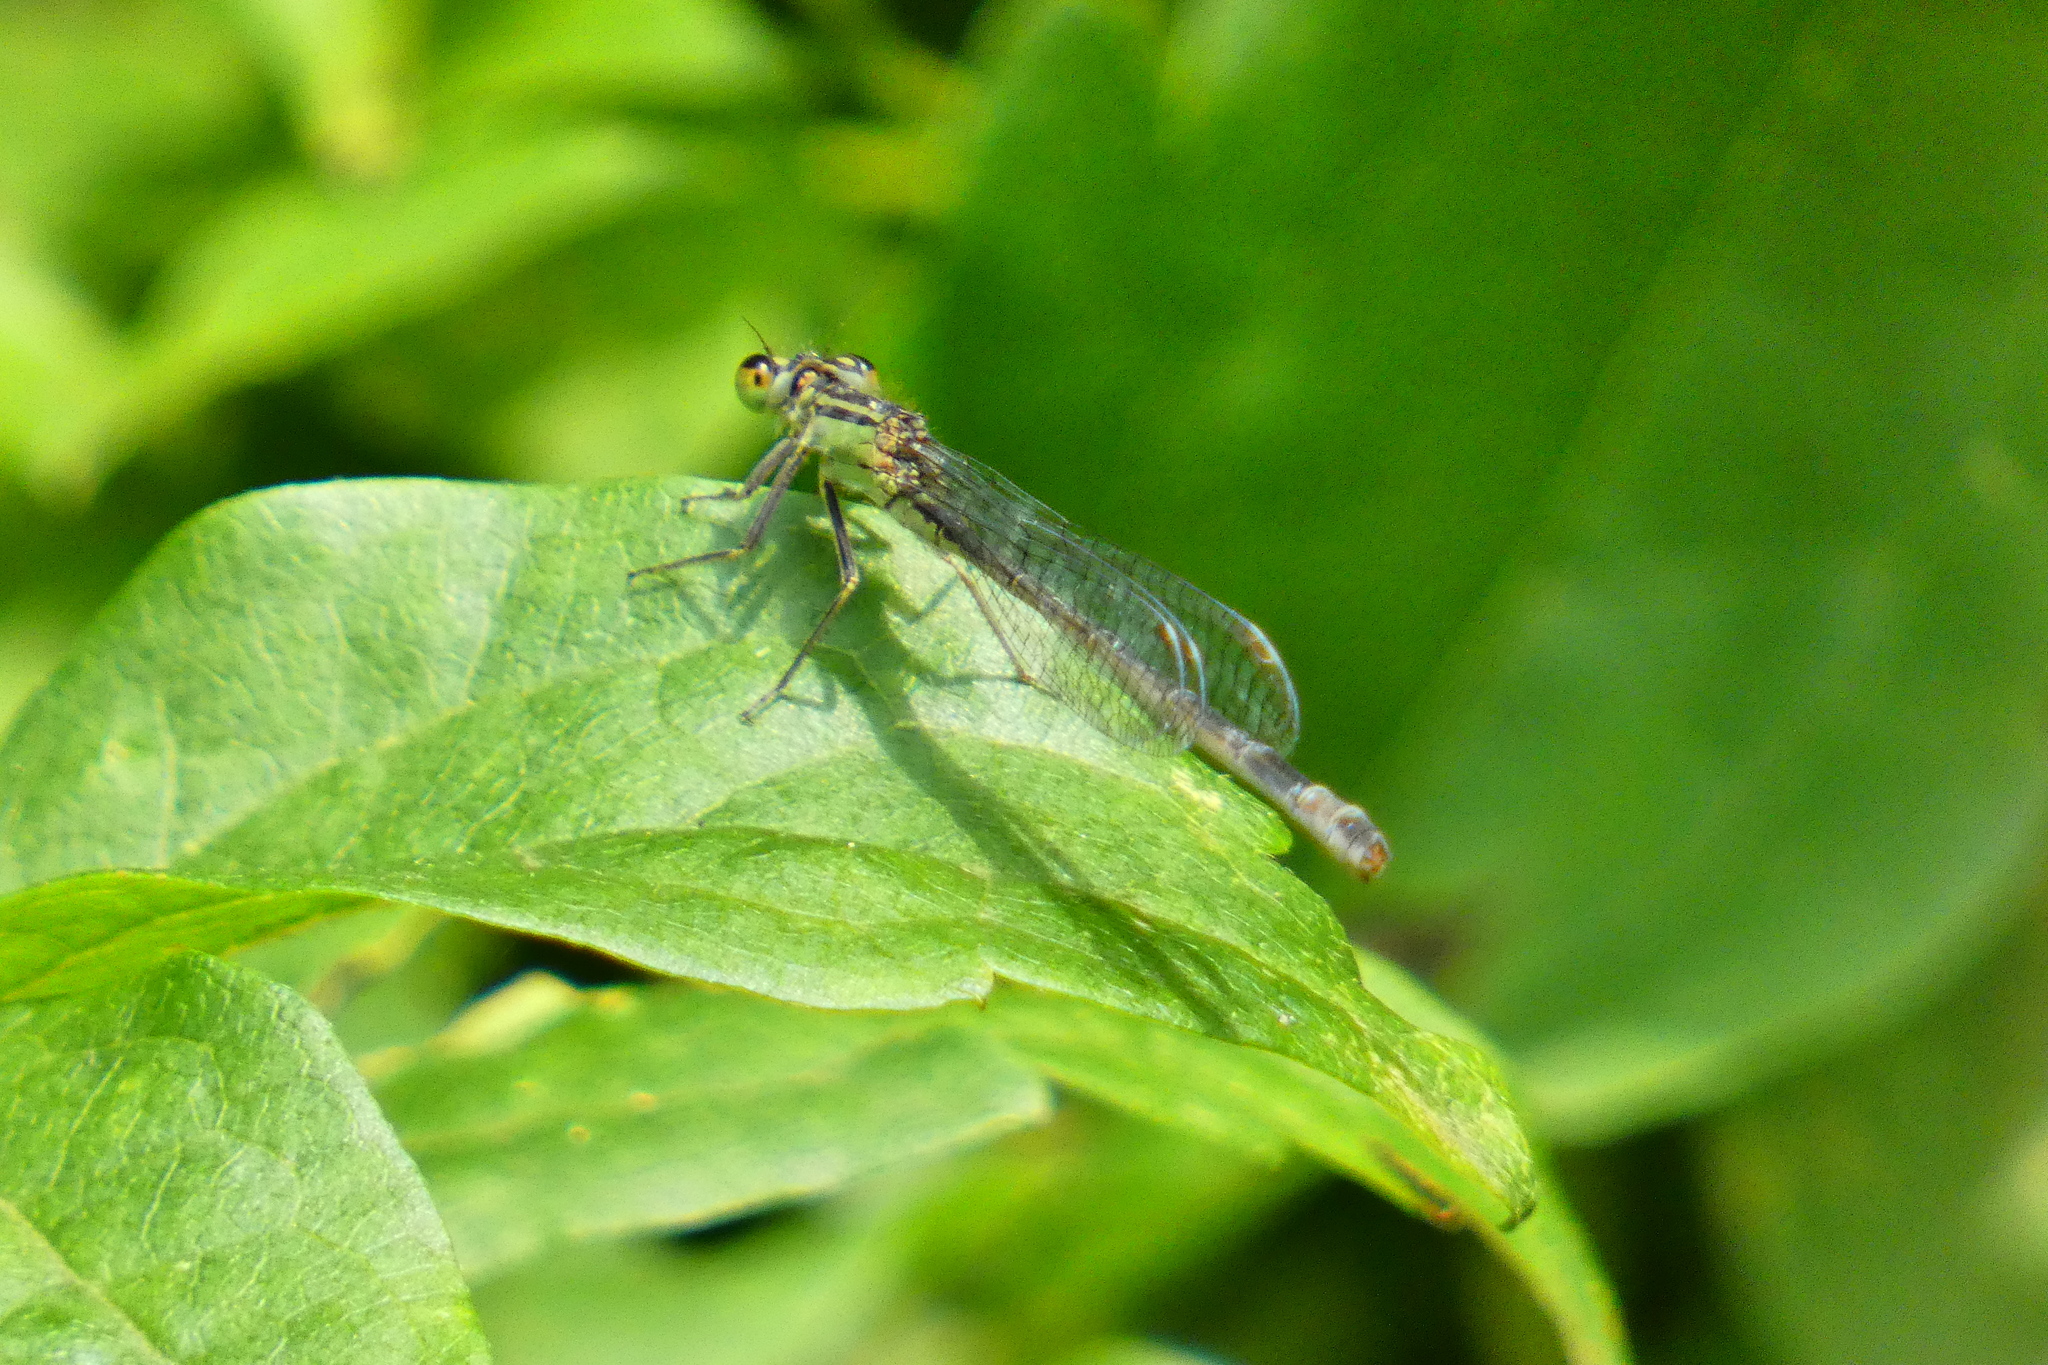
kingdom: Animalia
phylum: Arthropoda
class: Insecta
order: Odonata
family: Coenagrionidae
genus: Ischnura
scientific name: Ischnura elegans
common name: Blue-tailed damselfly
